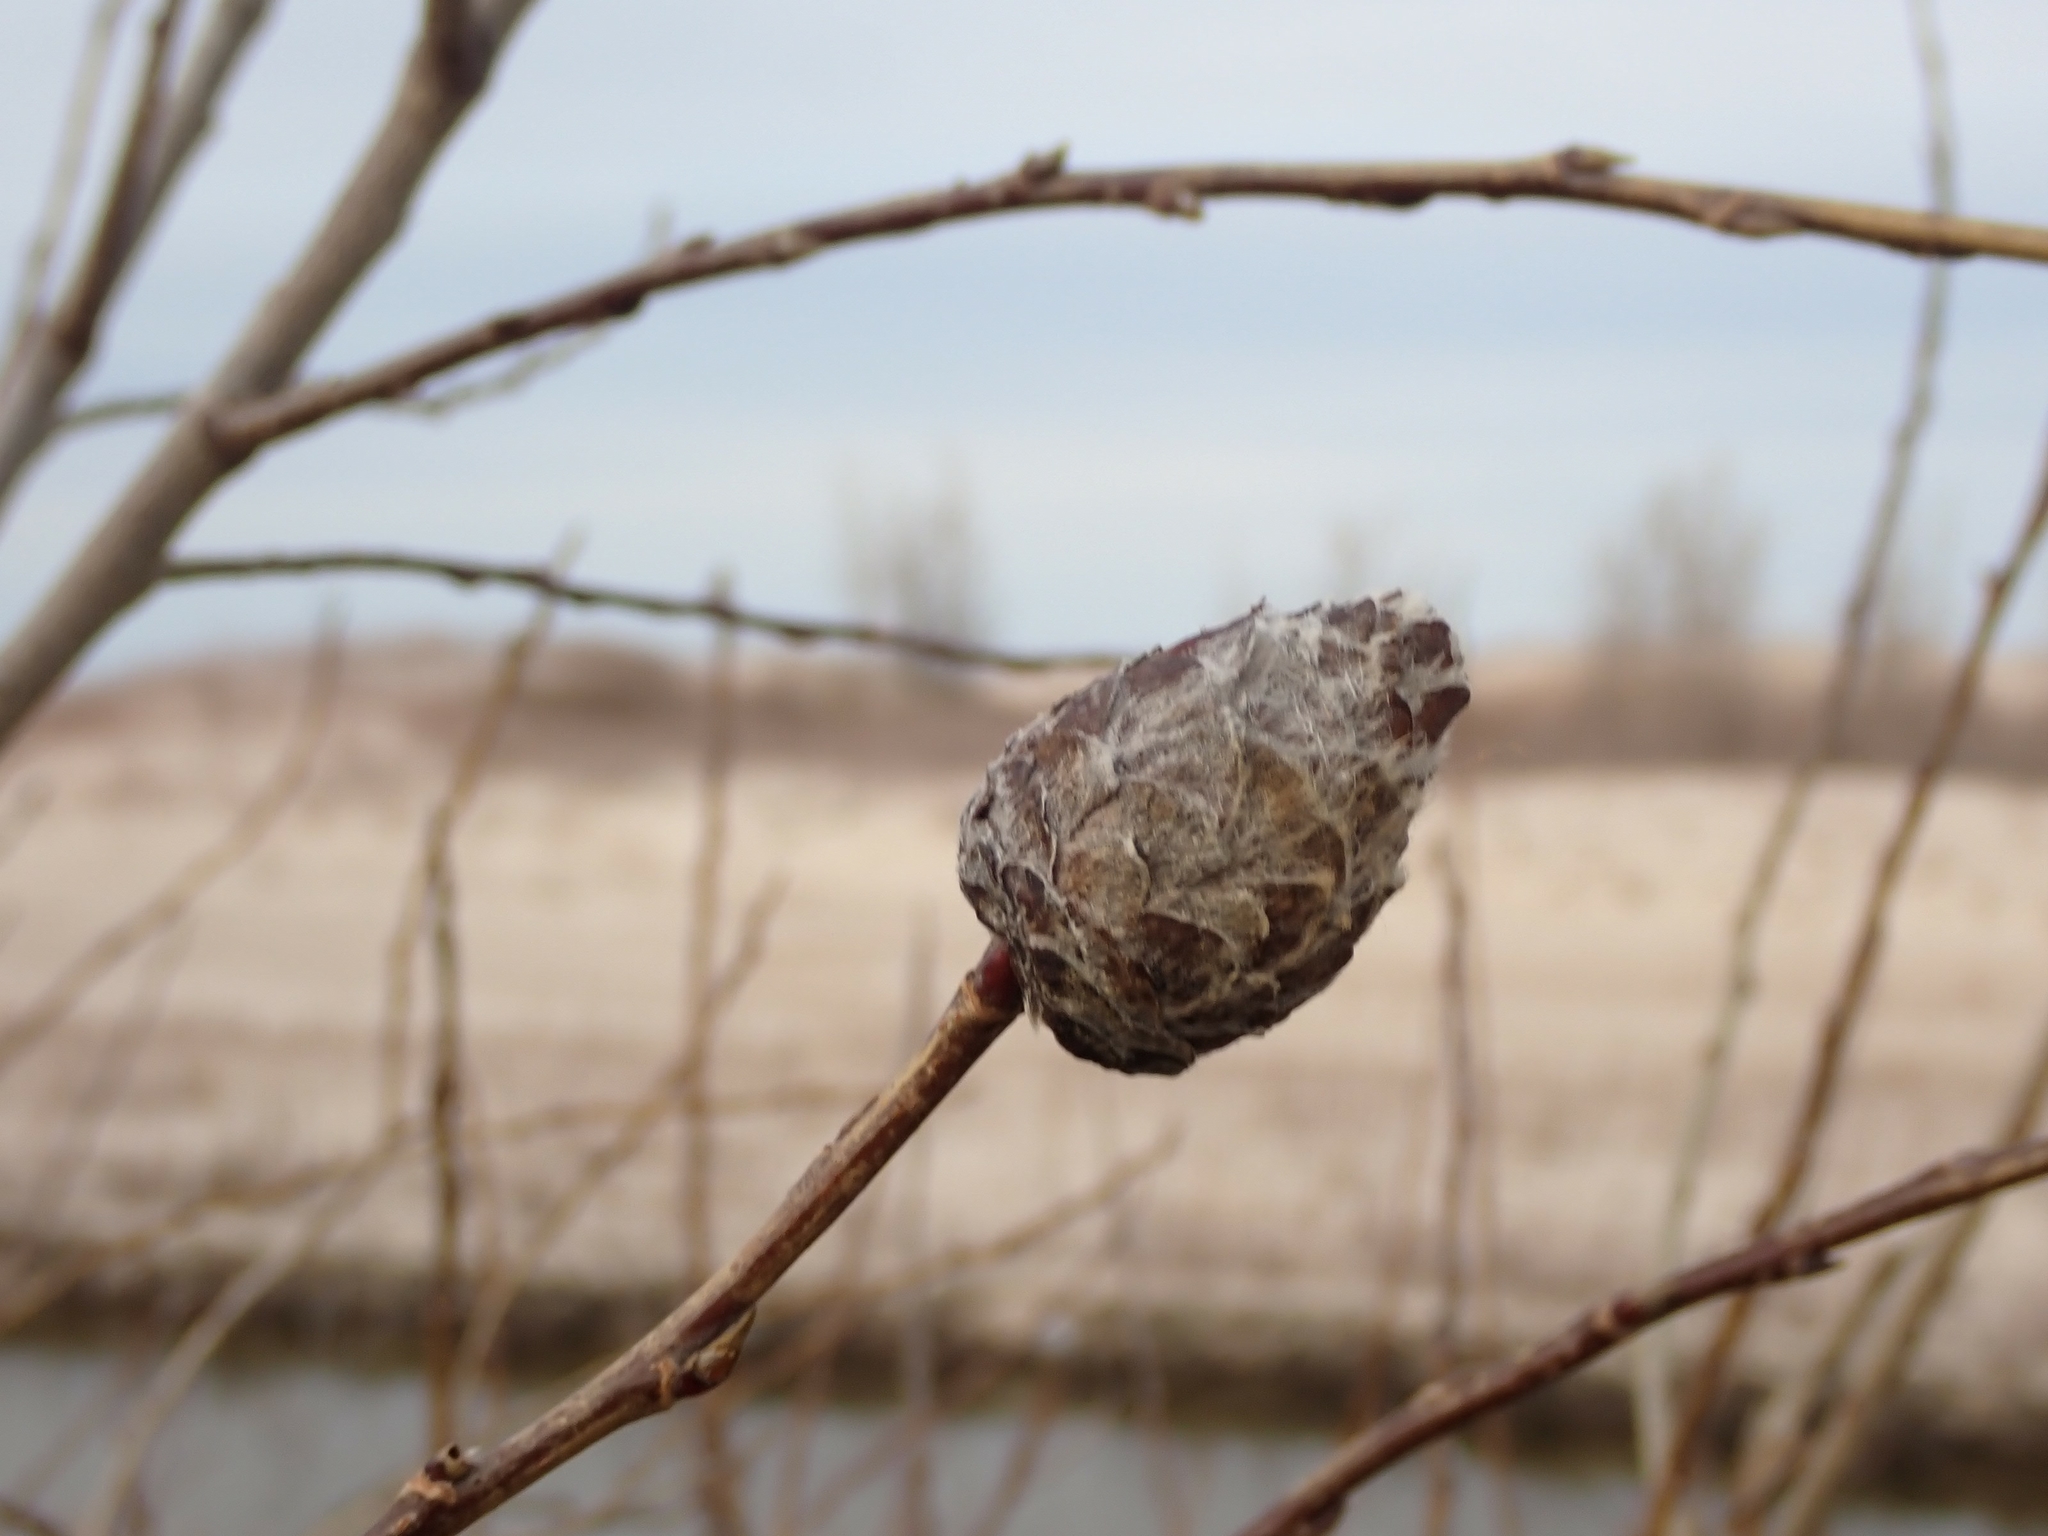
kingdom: Animalia
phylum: Arthropoda
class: Insecta
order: Diptera
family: Cecidomyiidae
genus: Rabdophaga
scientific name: Rabdophaga strobiloides
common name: Willow pinecone gall midge
